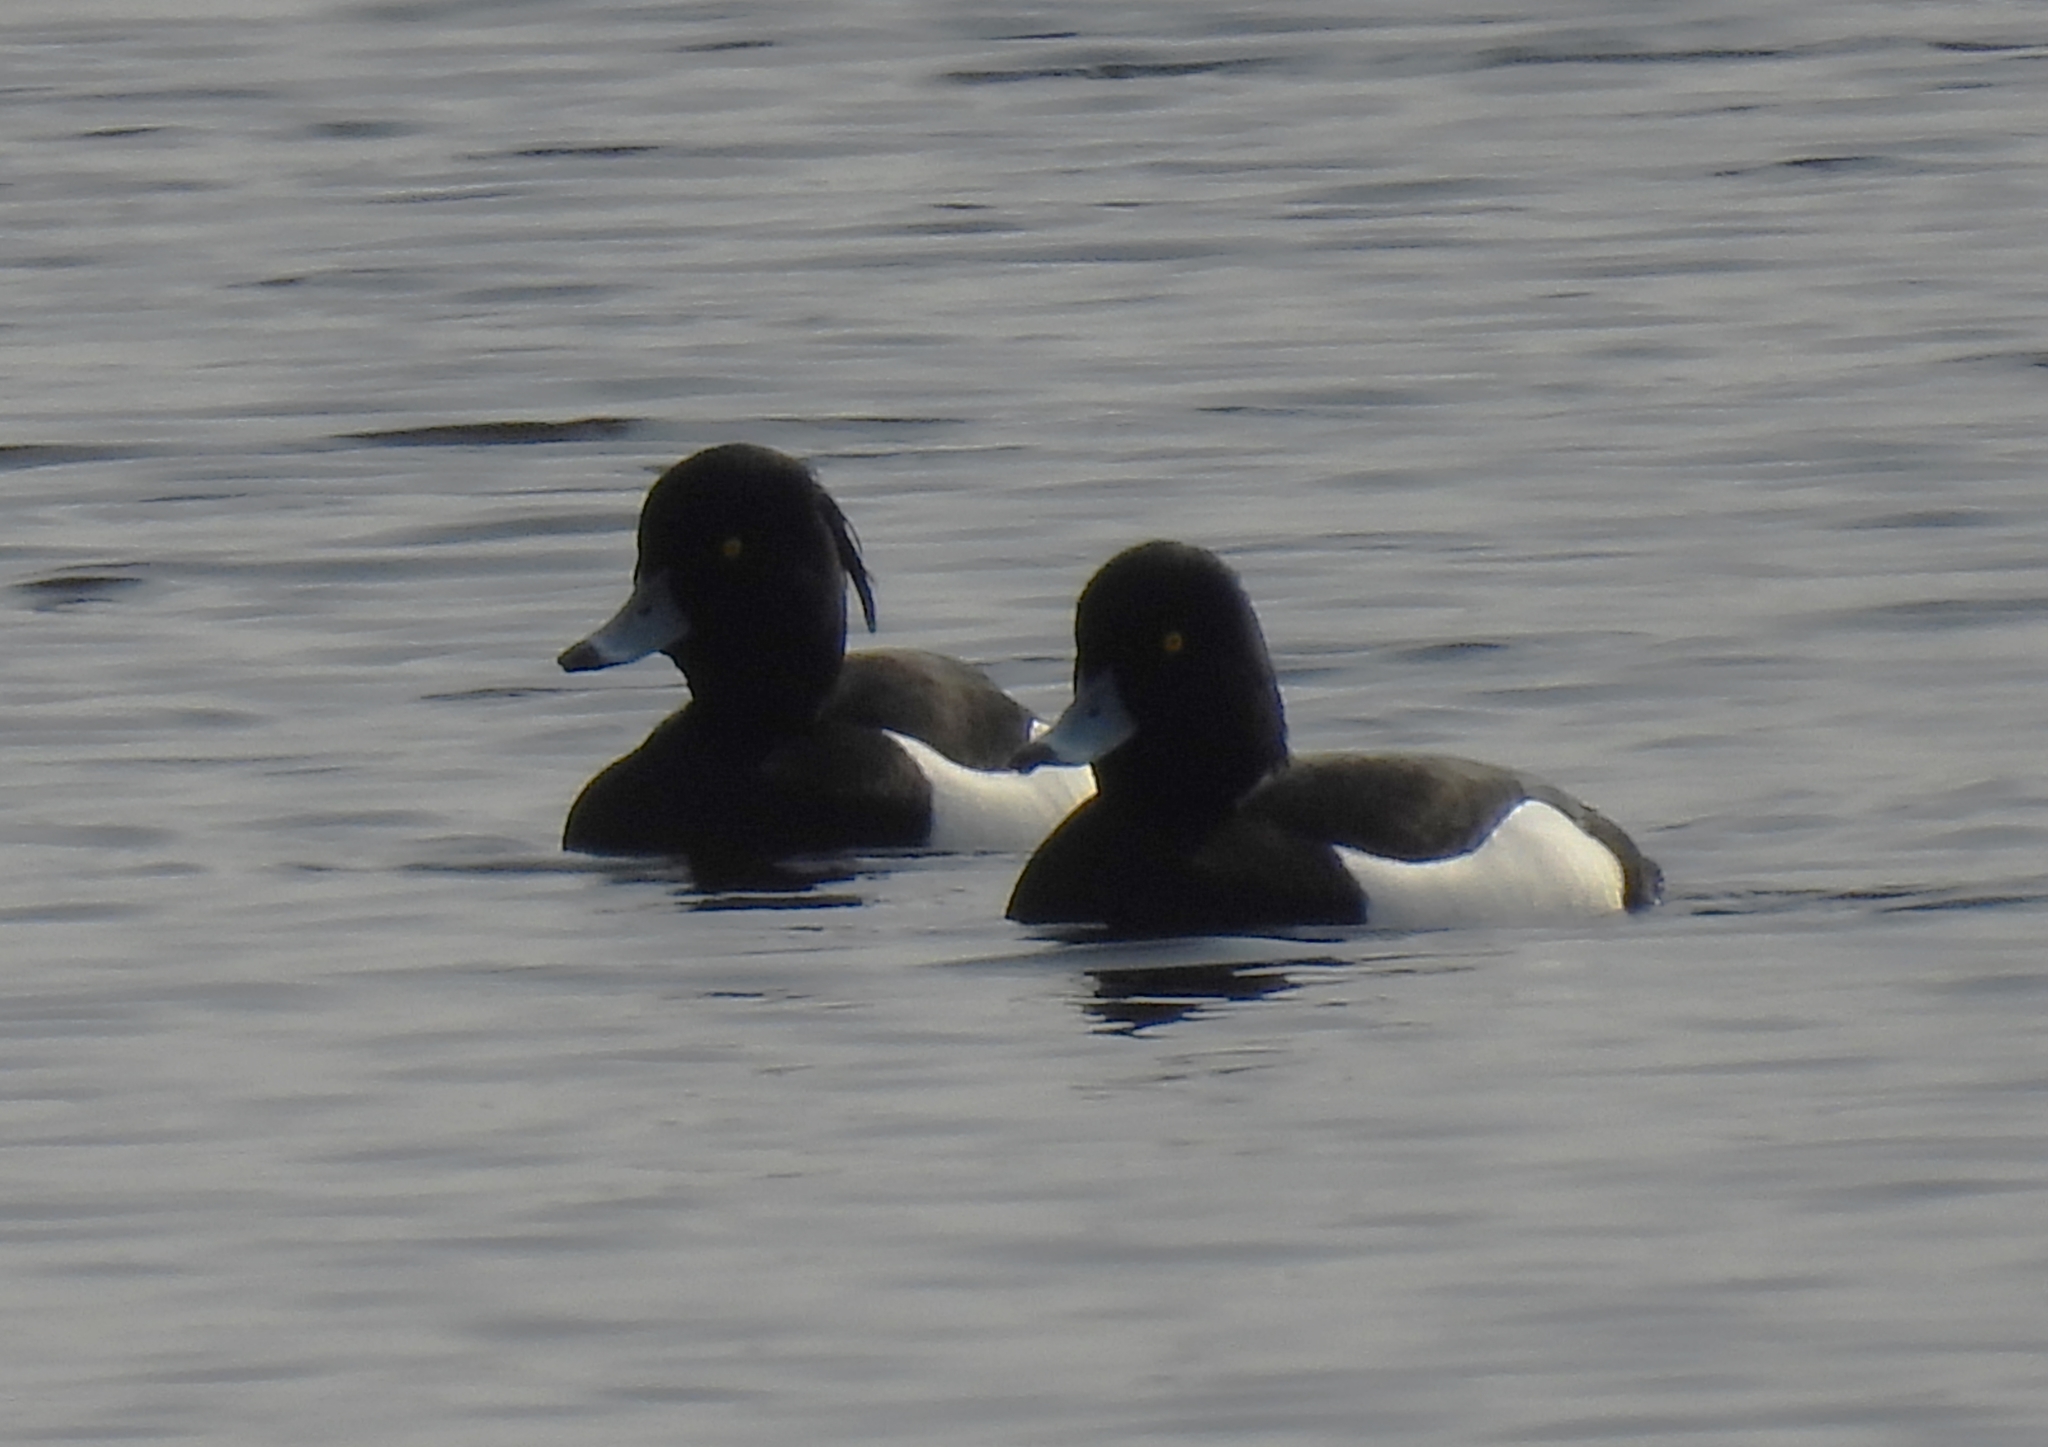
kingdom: Animalia
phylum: Chordata
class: Aves
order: Anseriformes
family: Anatidae
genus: Aythya
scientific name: Aythya fuligula
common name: Tufted duck
